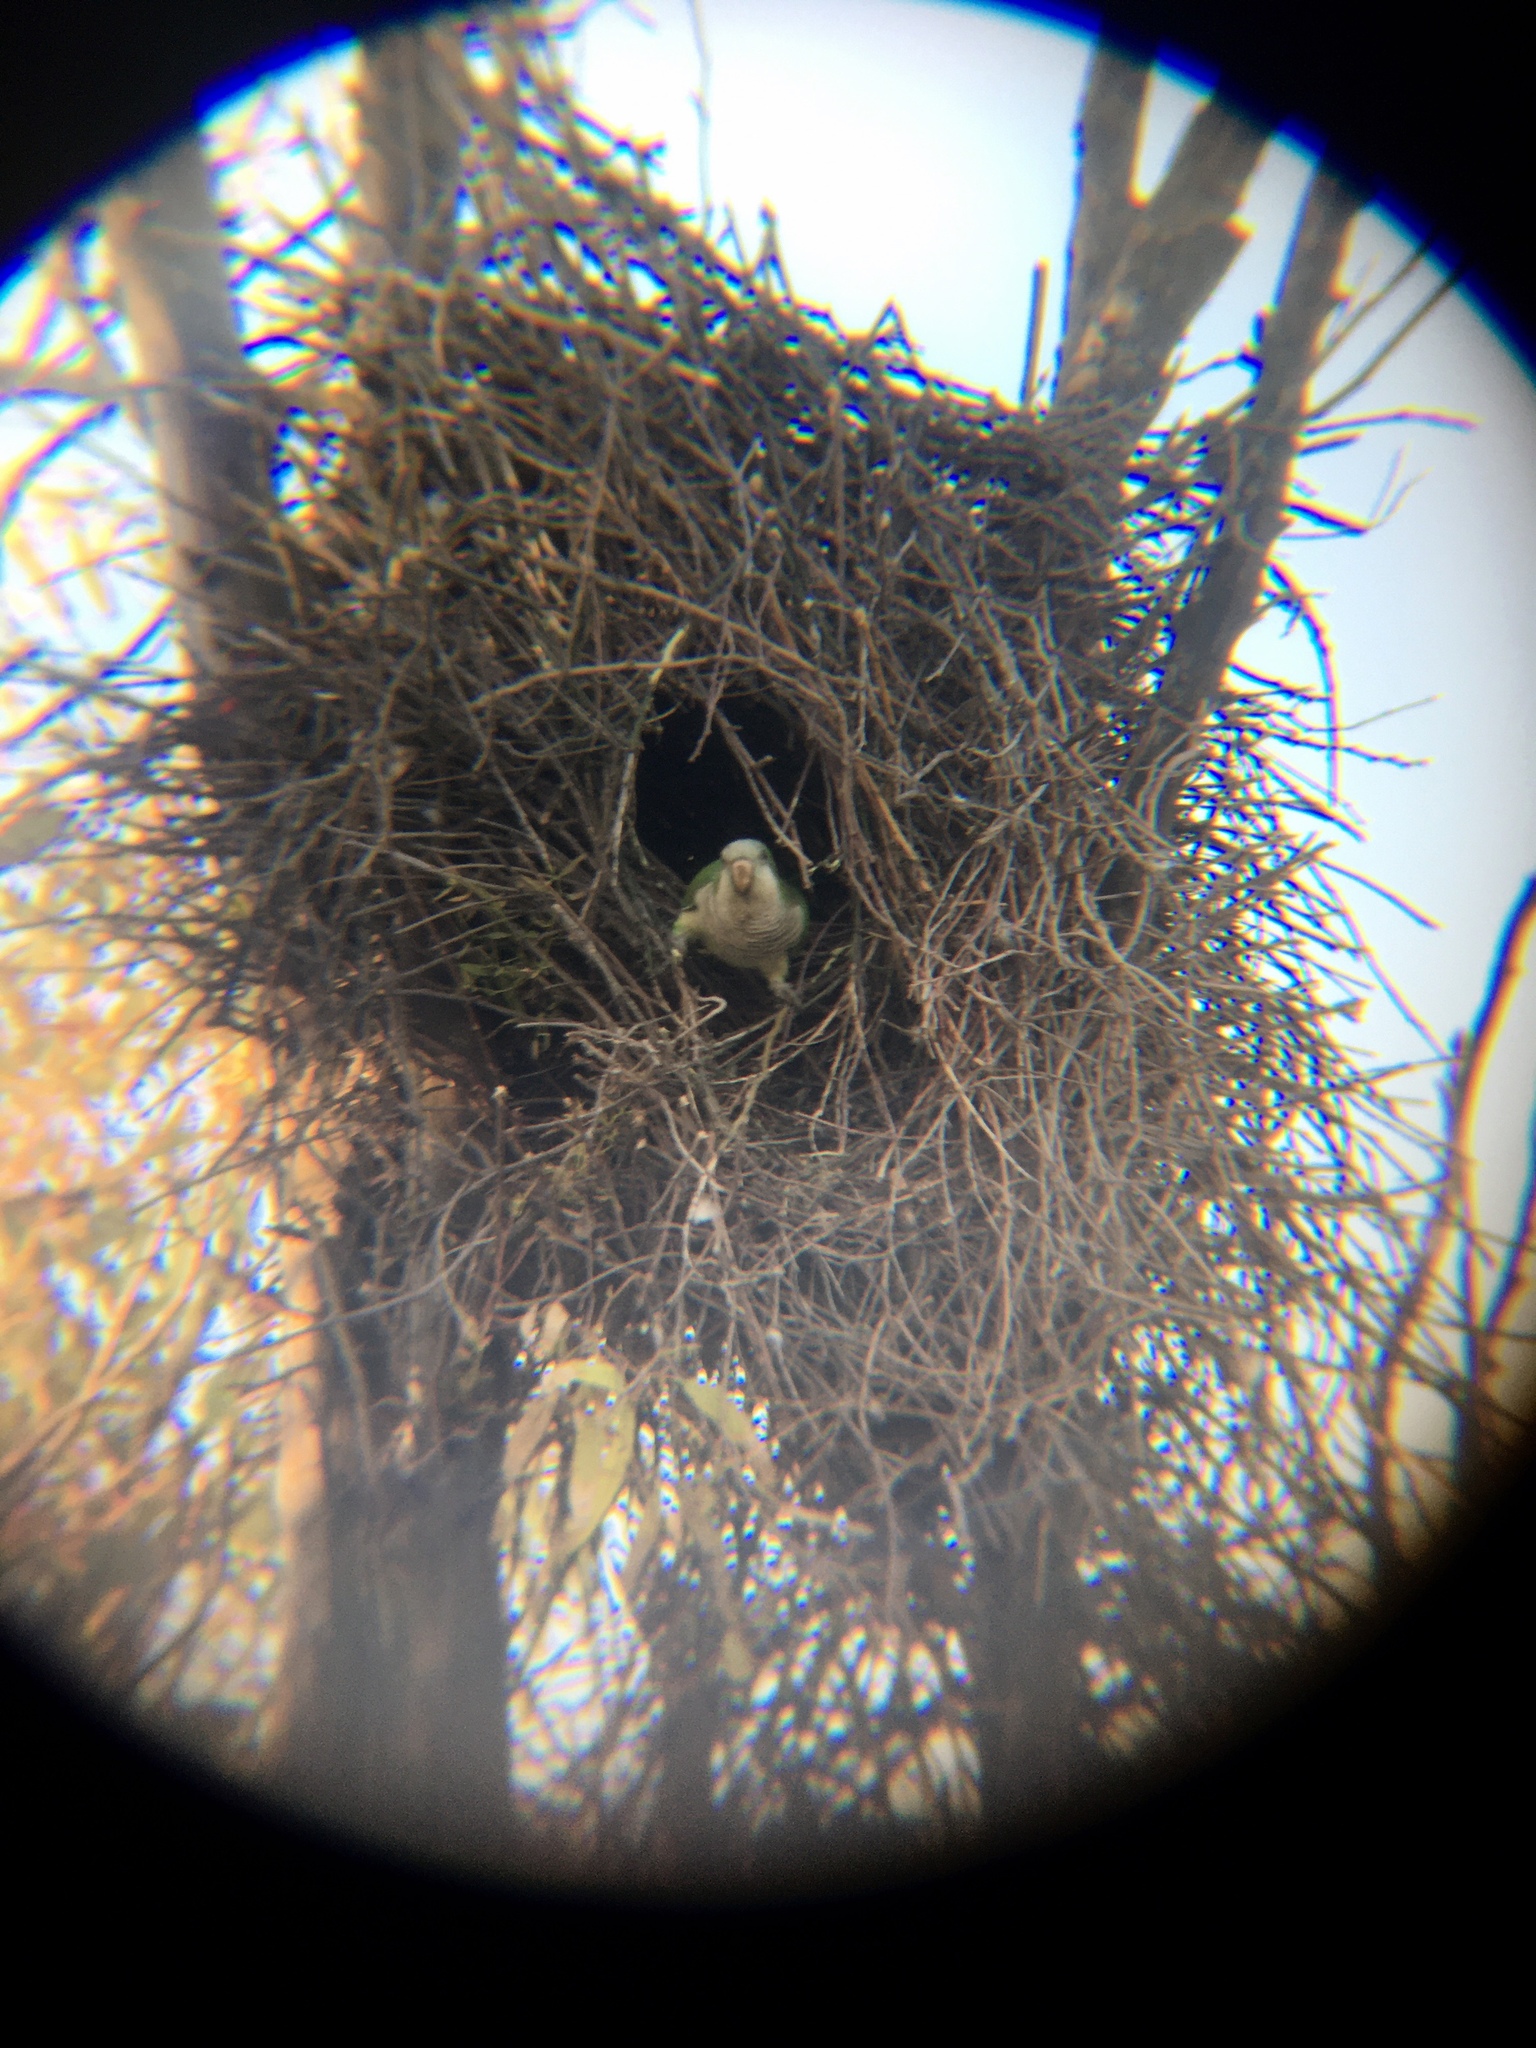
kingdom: Animalia
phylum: Chordata
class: Aves
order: Psittaciformes
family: Psittacidae
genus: Myiopsitta
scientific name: Myiopsitta monachus
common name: Monk parakeet
